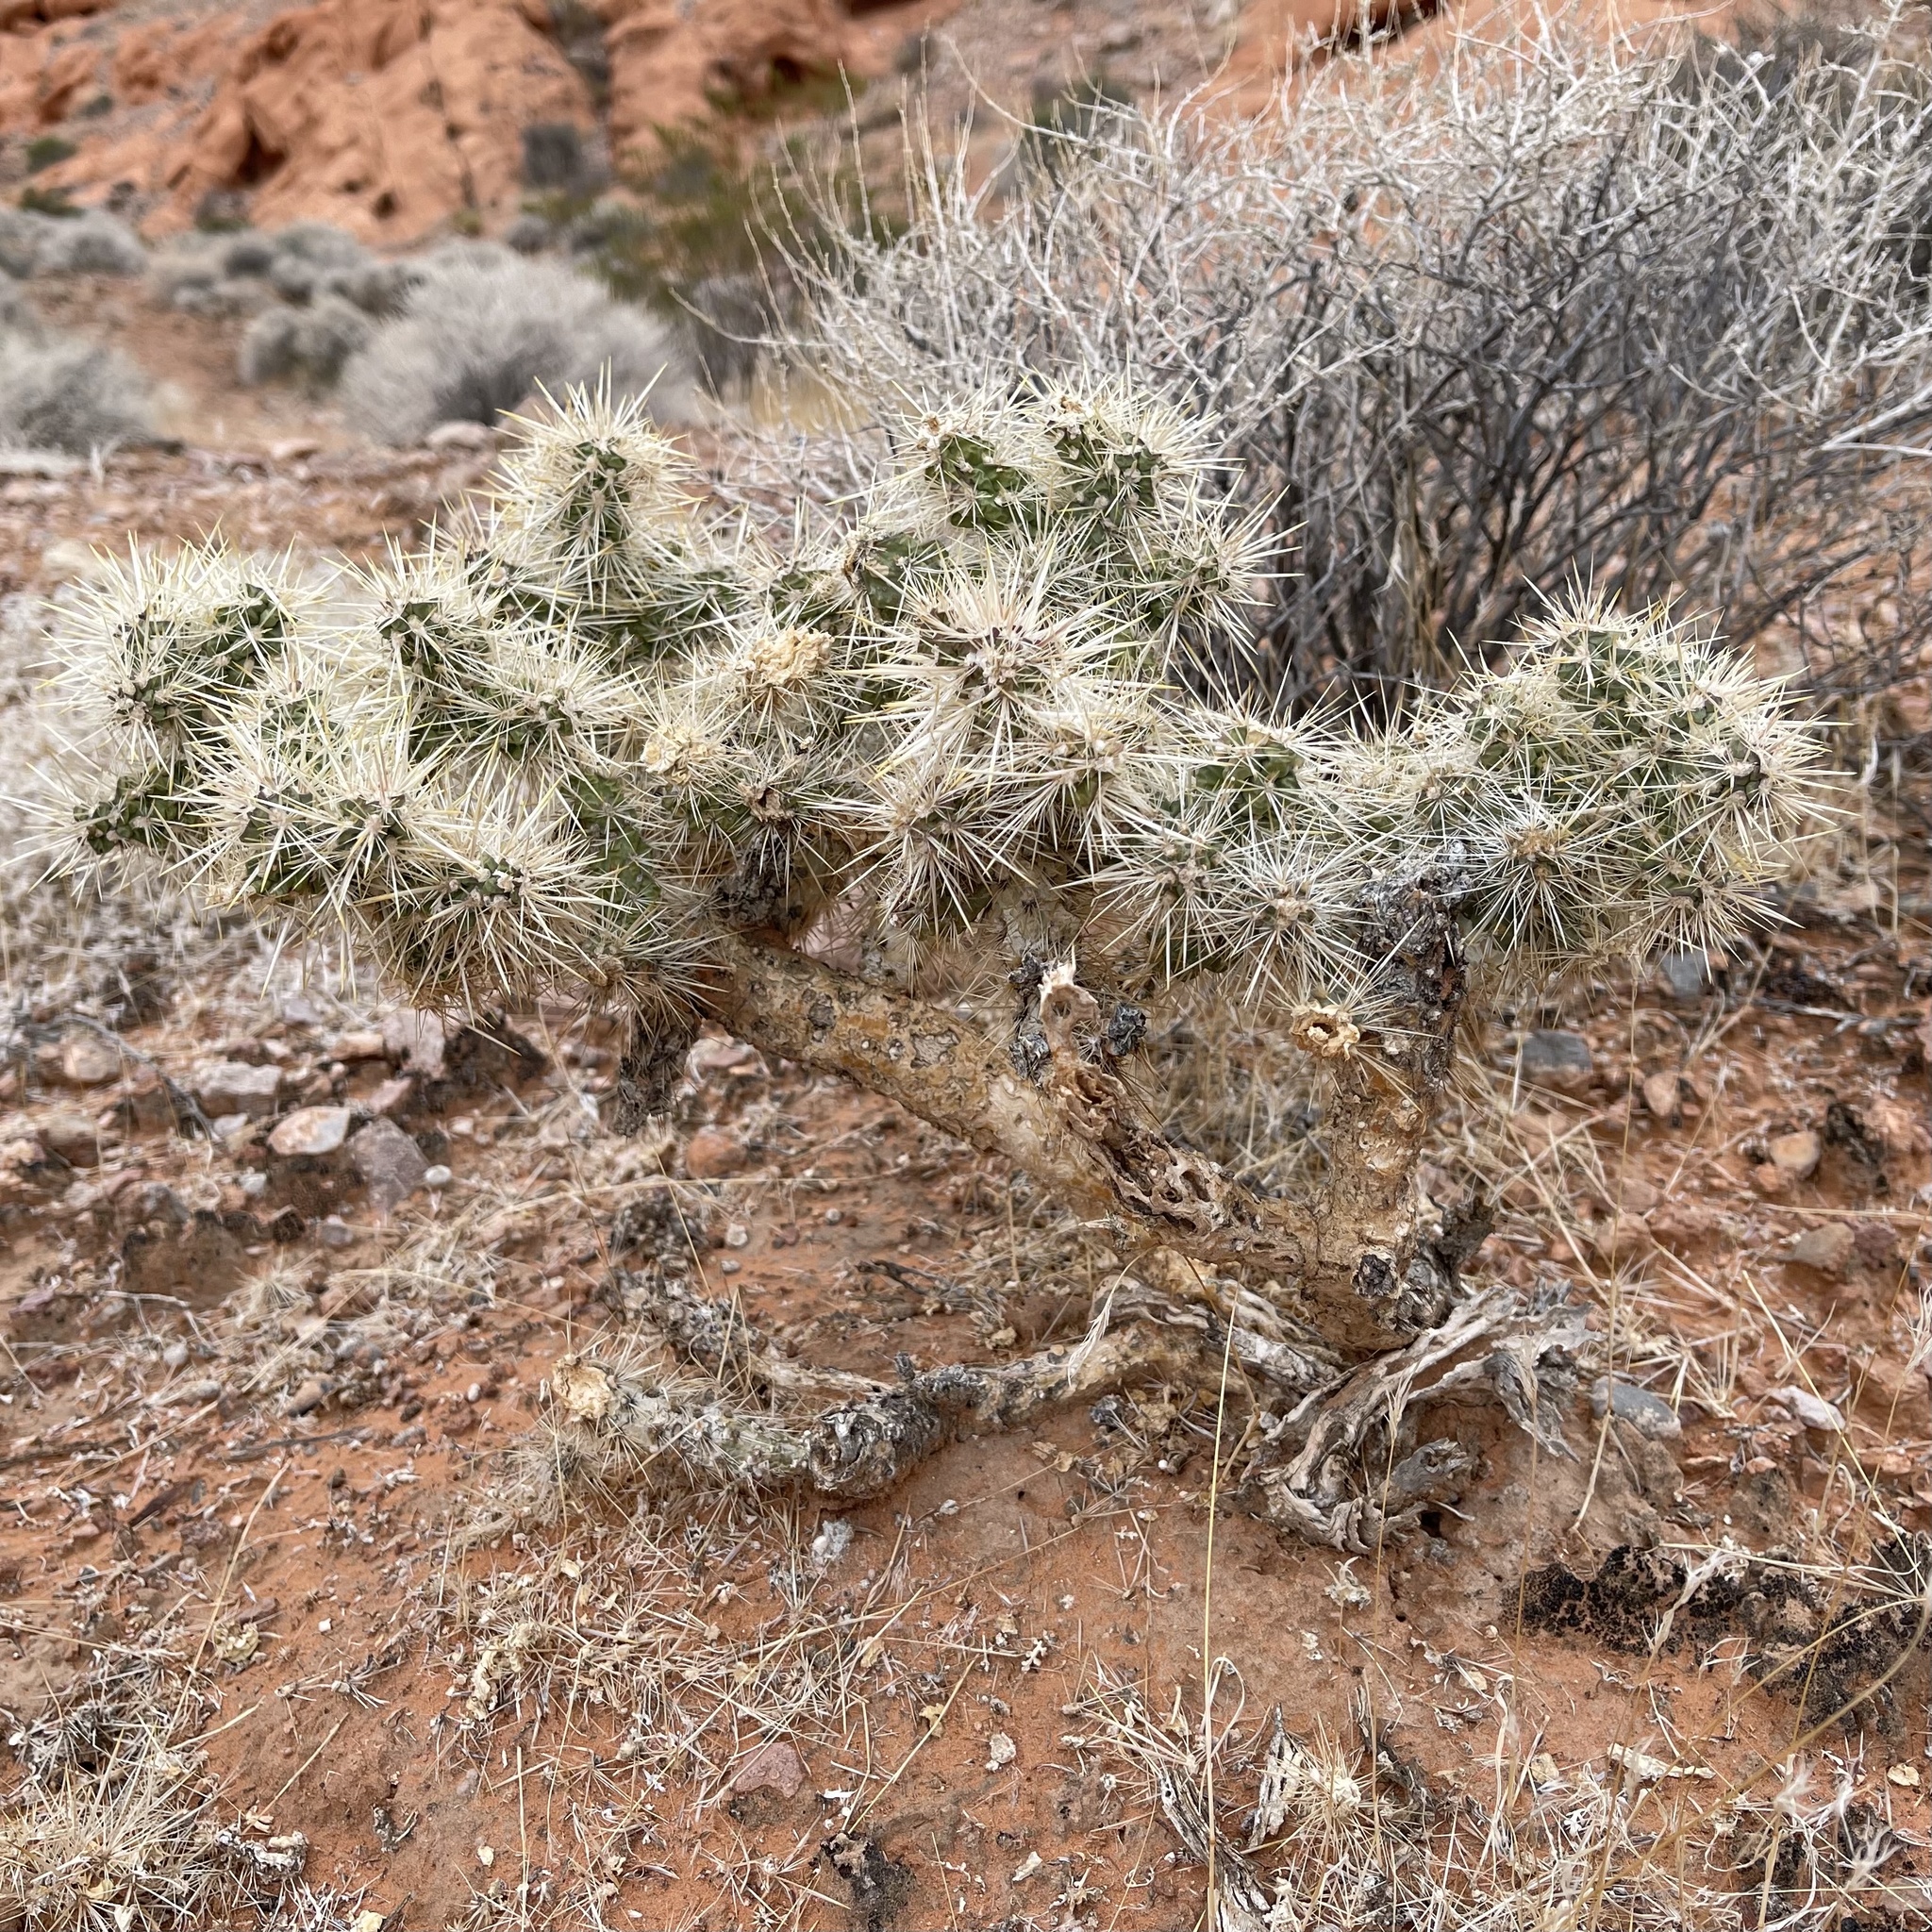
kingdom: Plantae
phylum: Tracheophyta
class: Magnoliopsida
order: Caryophyllales
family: Cactaceae
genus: Cylindropuntia
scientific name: Cylindropuntia echinocarpa
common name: Ground cholla
